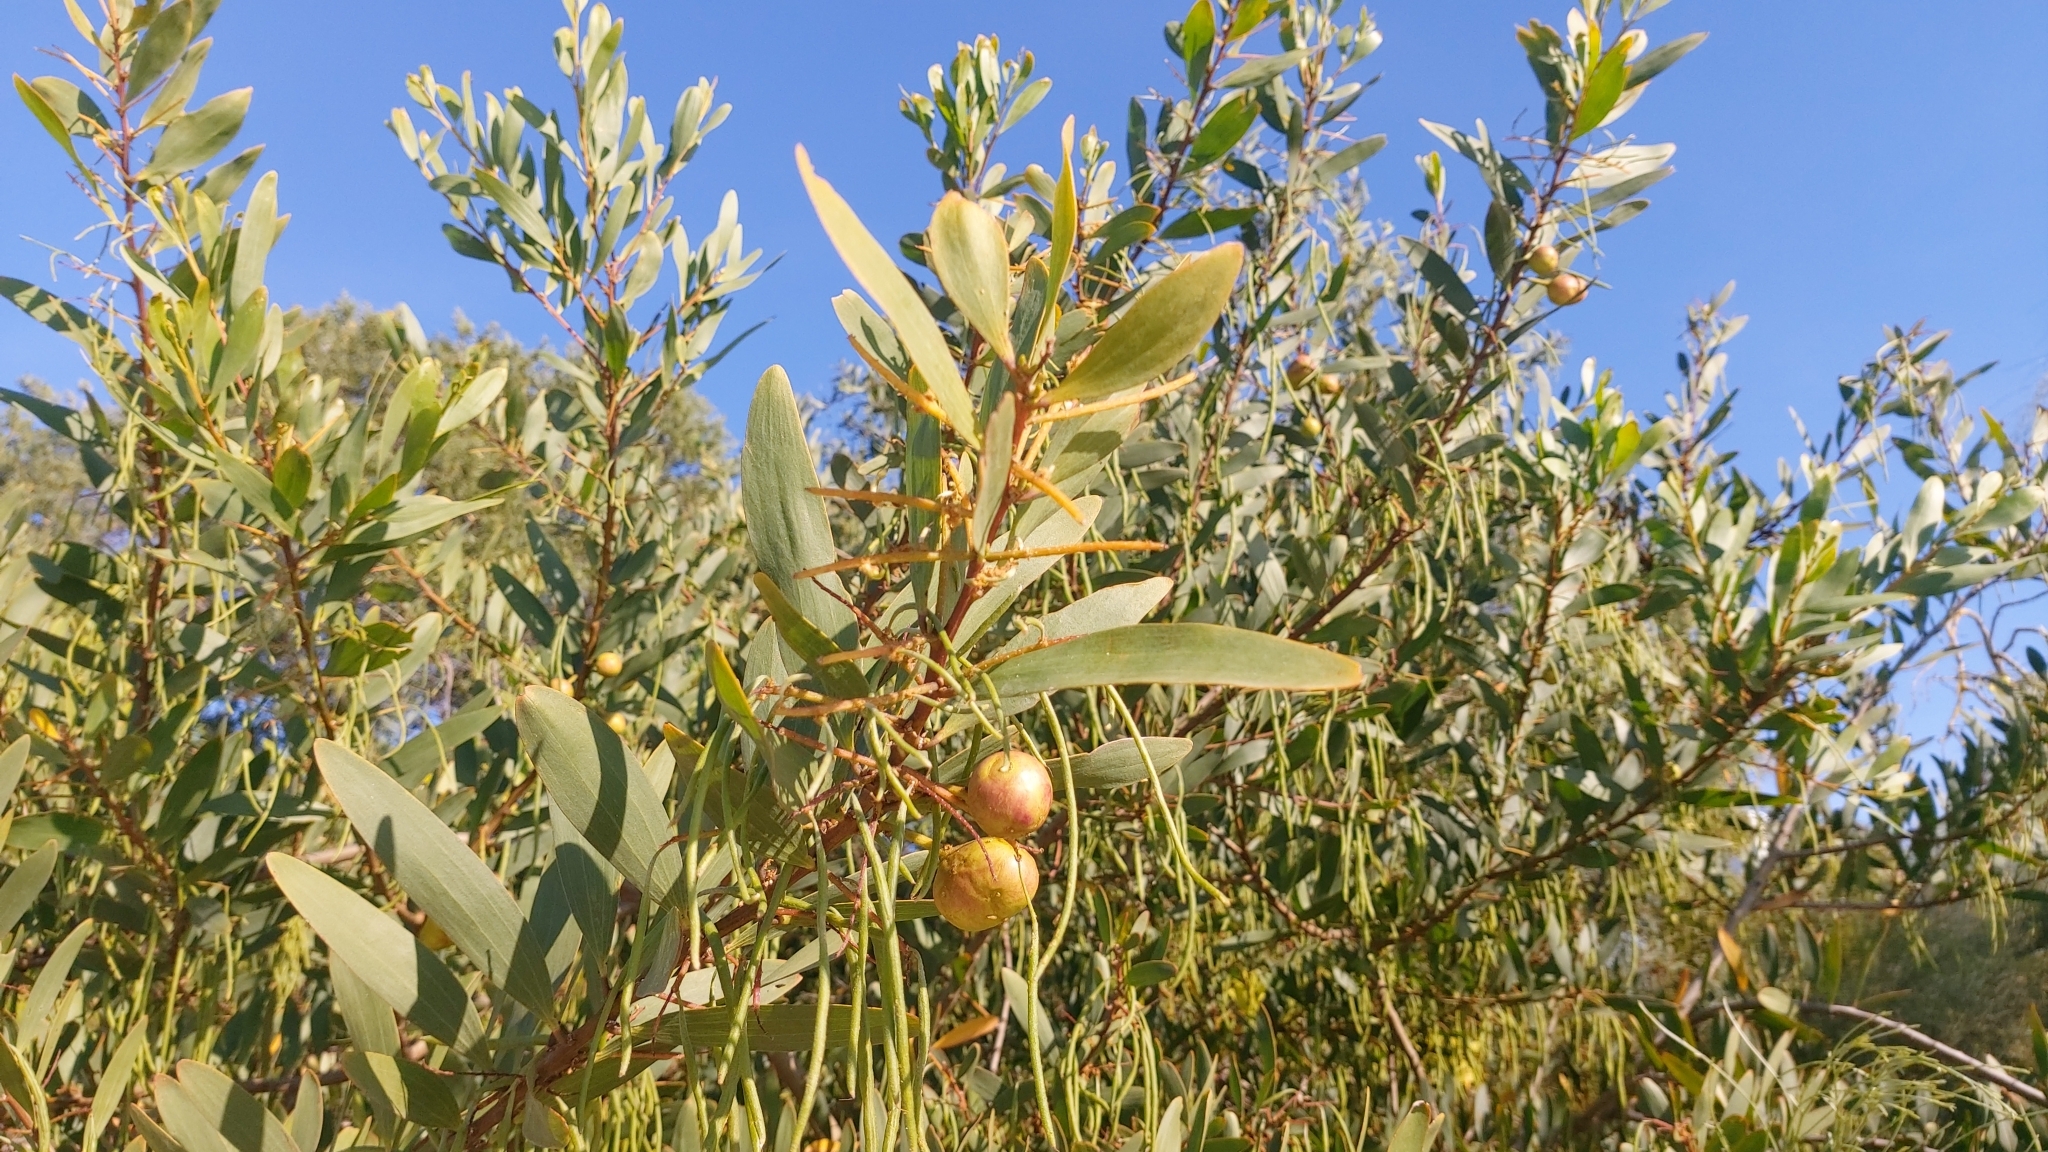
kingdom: Plantae
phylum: Tracheophyta
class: Magnoliopsida
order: Fabales
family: Fabaceae
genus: Acacia
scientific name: Acacia longifolia
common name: Sydney golden wattle
